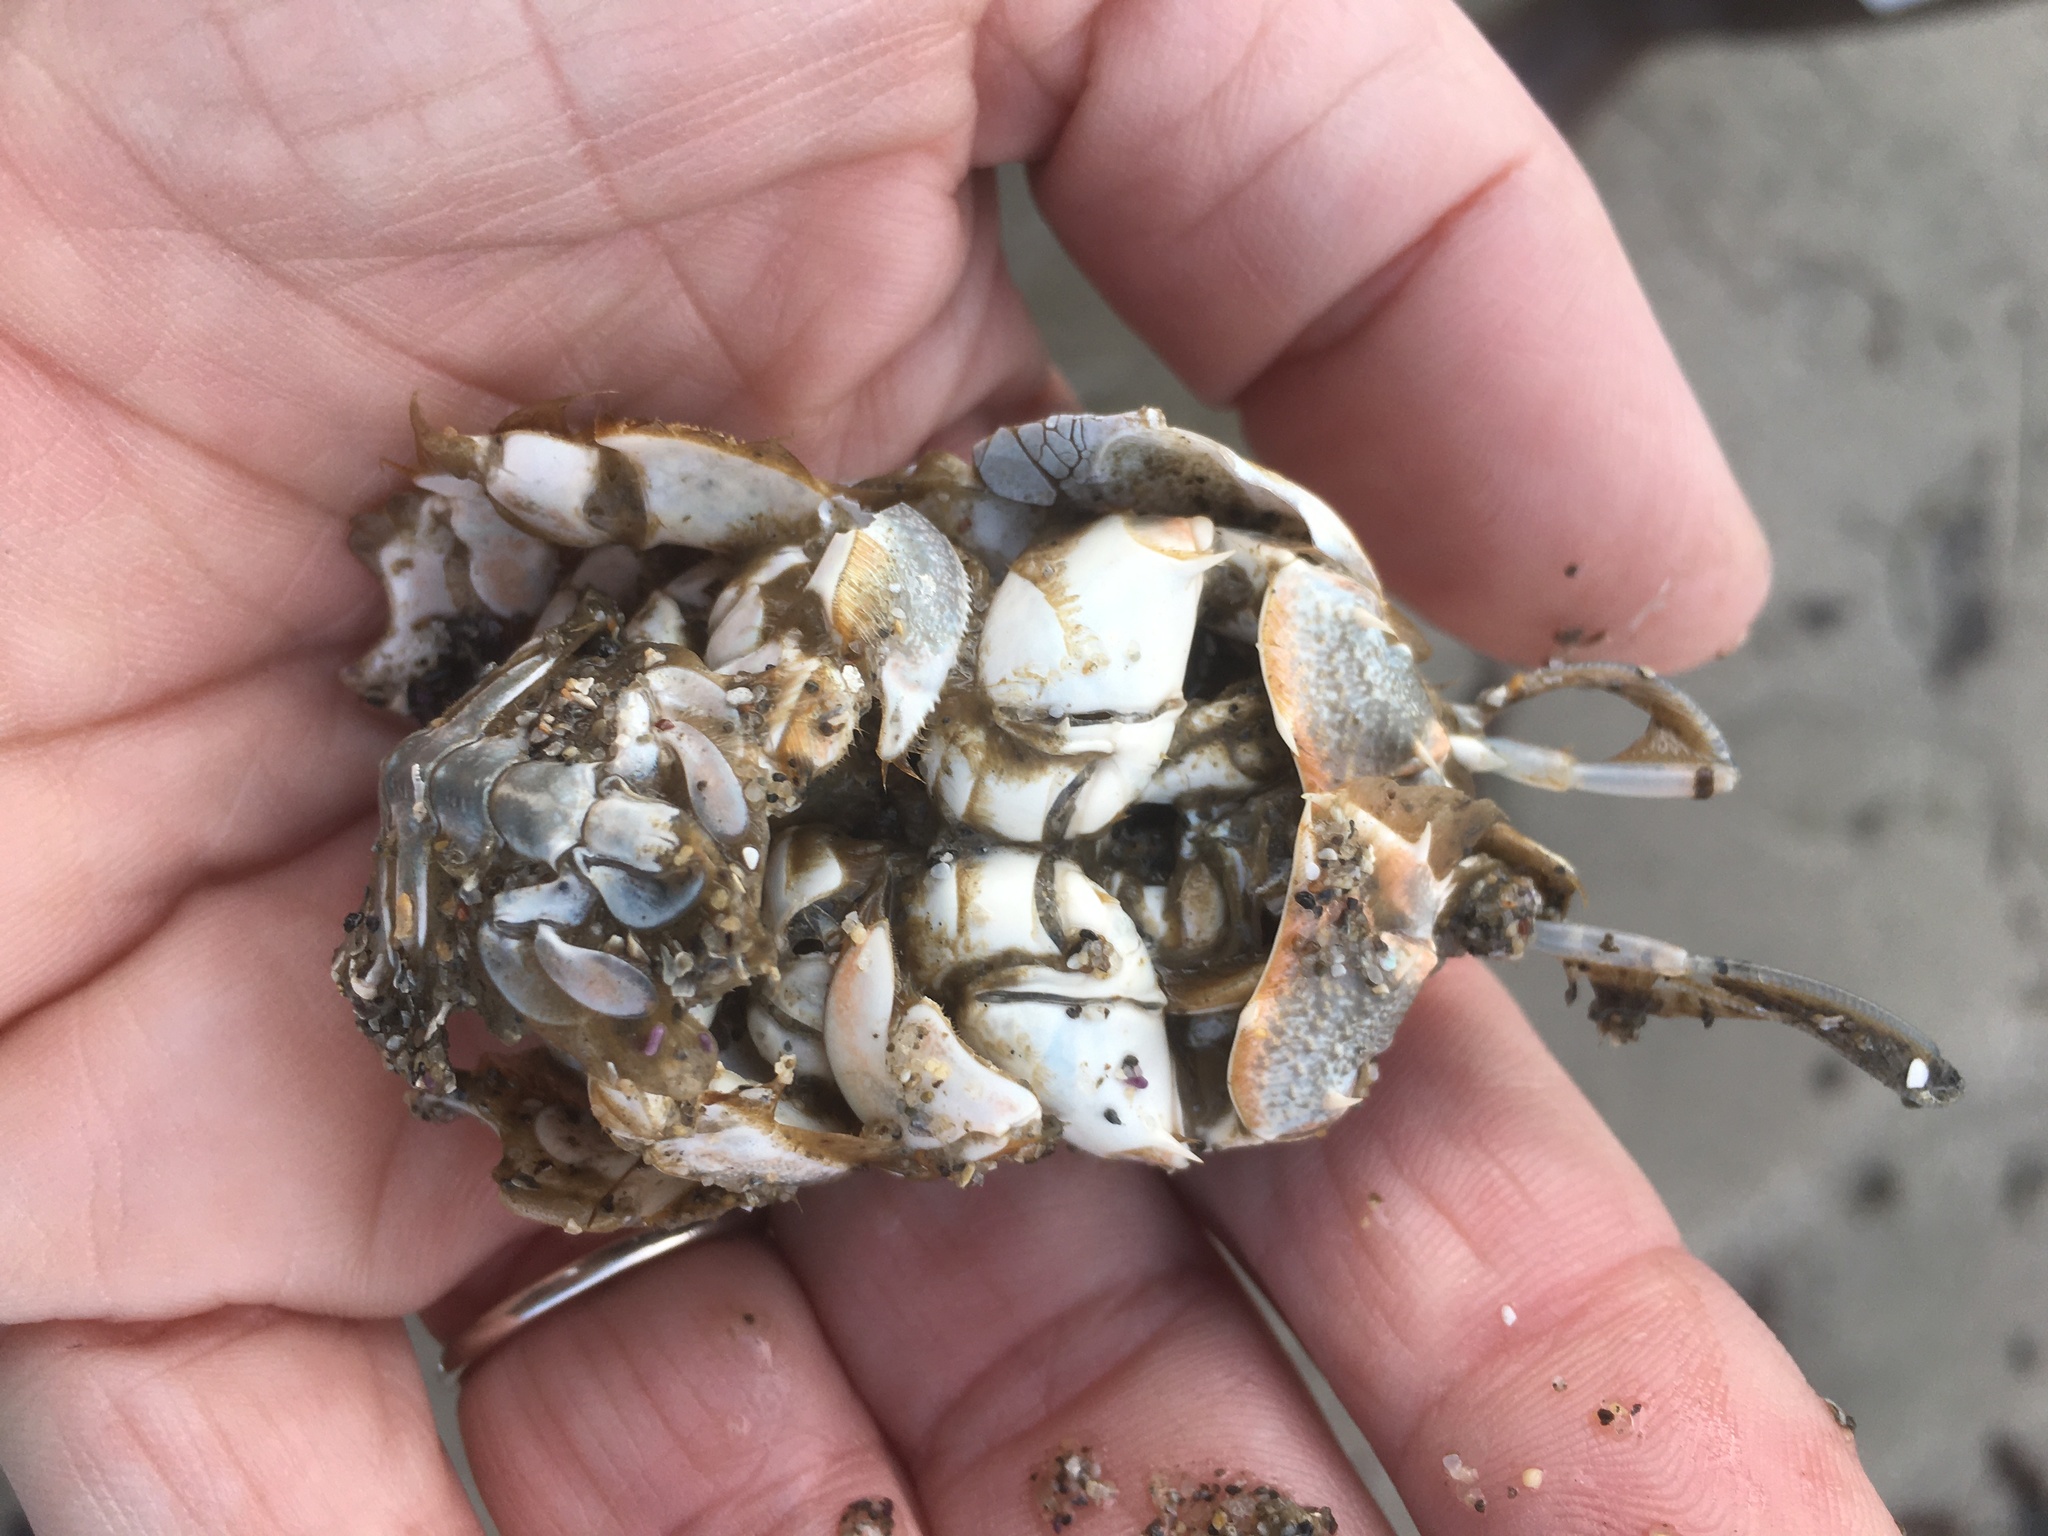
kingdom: Animalia
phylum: Arthropoda
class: Malacostraca
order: Decapoda
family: Blepharipodidae
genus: Blepharipoda
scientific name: Blepharipoda occidentalis
